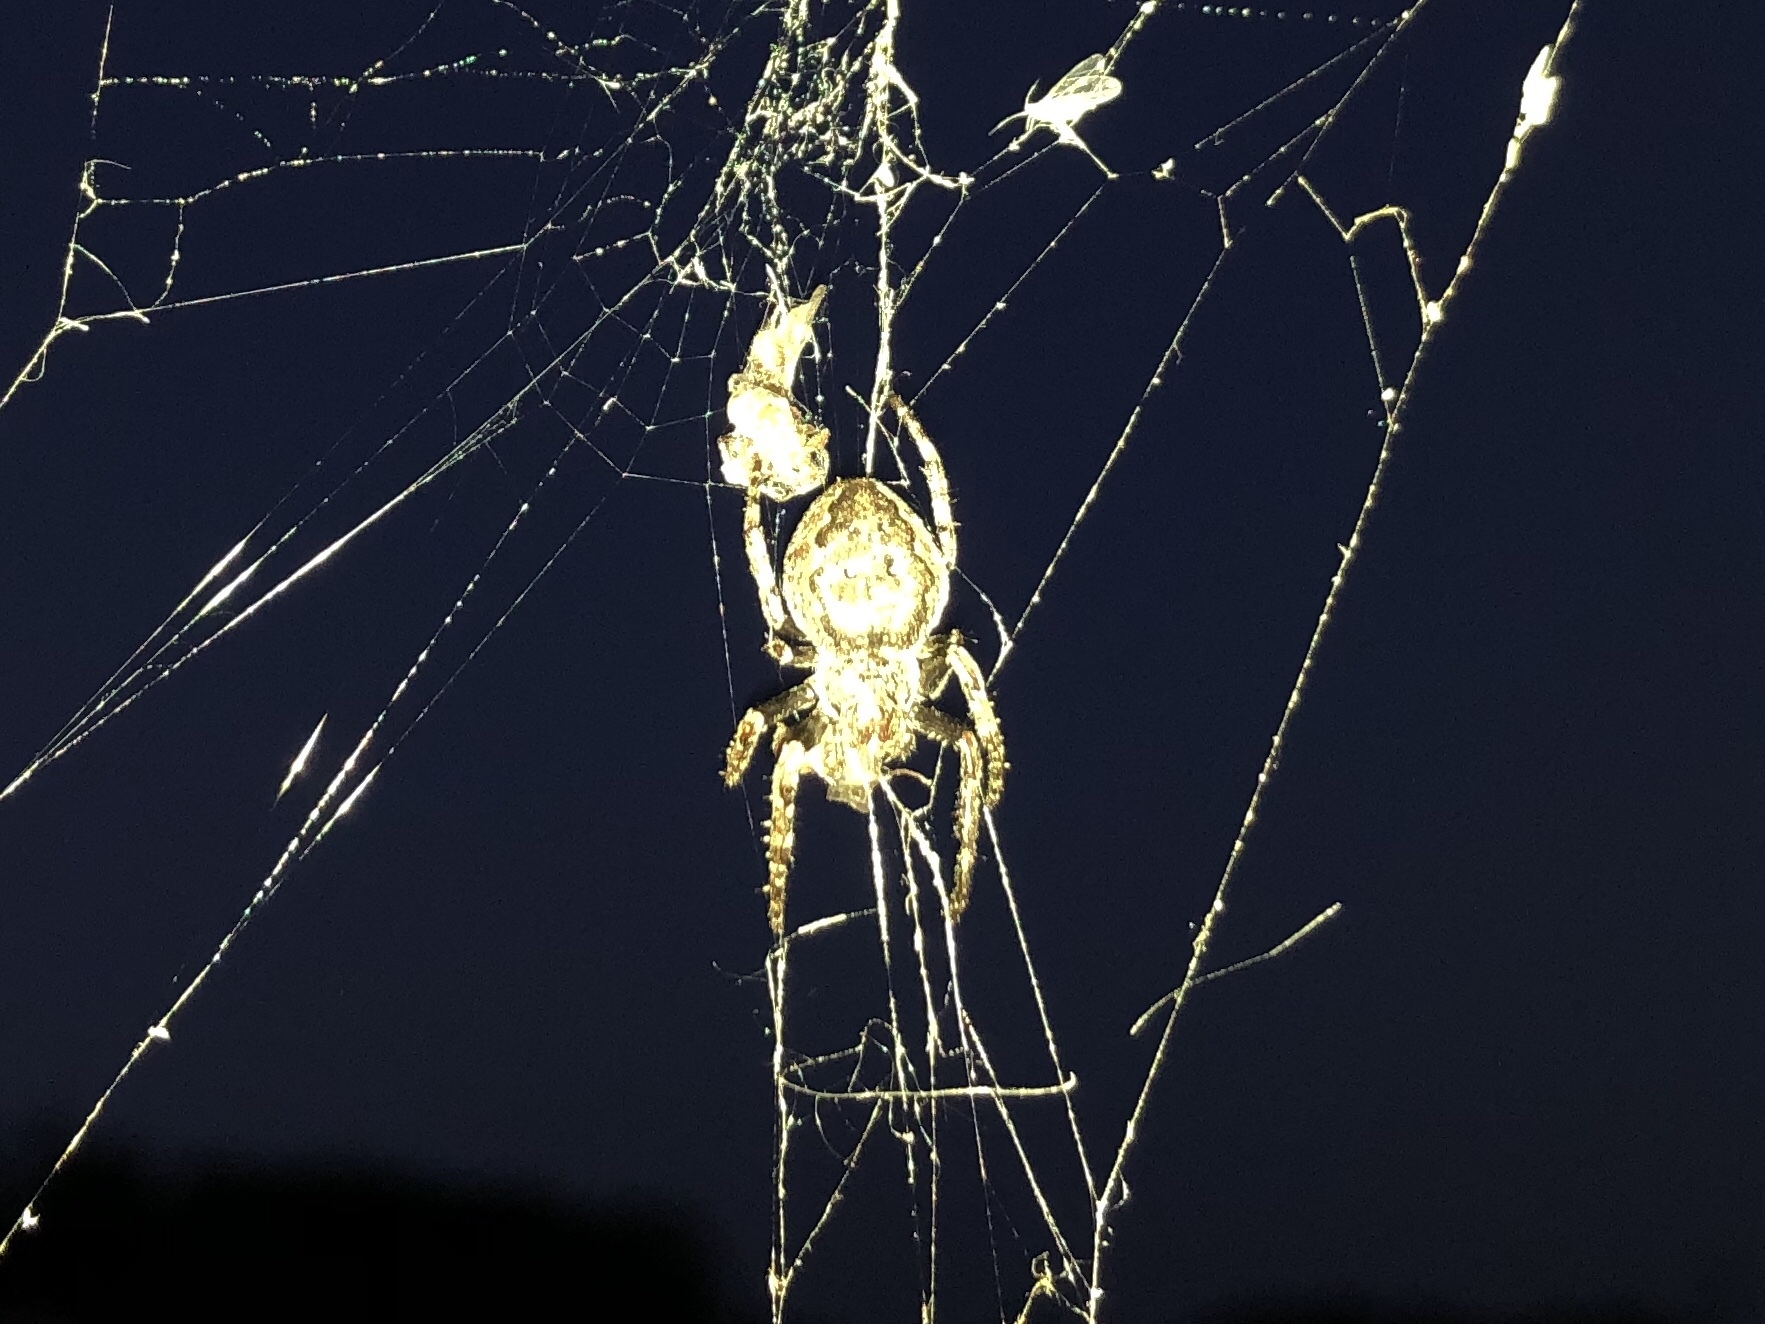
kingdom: Animalia
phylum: Arthropoda
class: Arachnida
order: Araneae
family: Araneidae
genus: Nuctenea
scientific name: Nuctenea umbratica
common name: Toad spider
